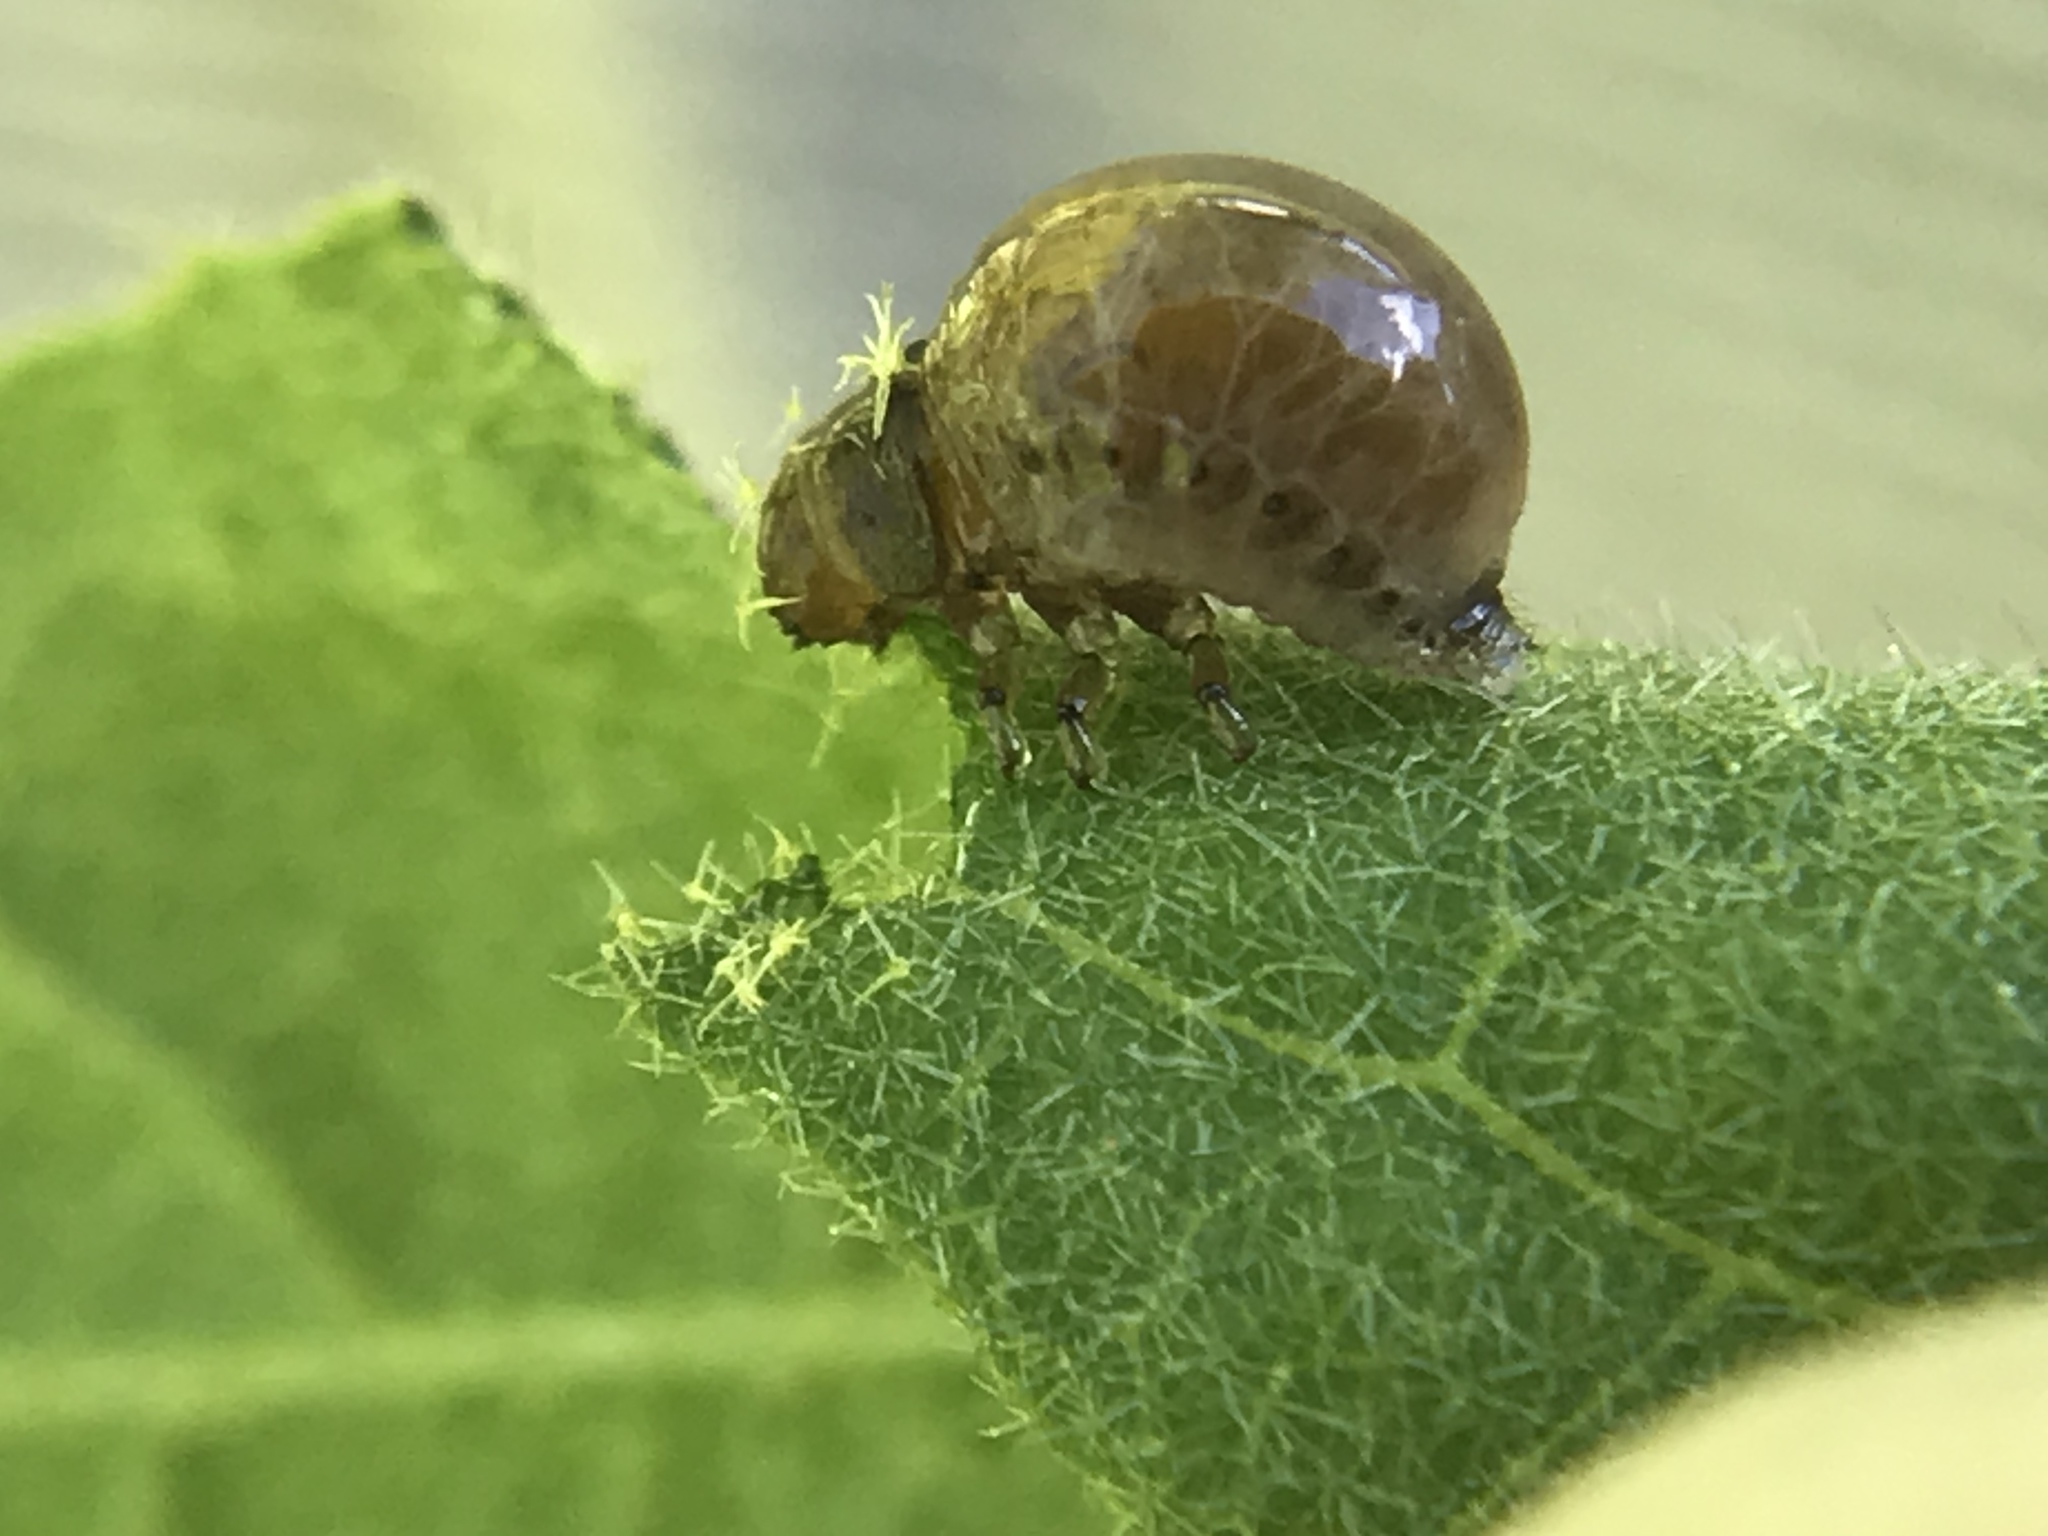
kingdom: Animalia
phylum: Arthropoda
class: Insecta
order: Coleoptera
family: Chrysomelidae
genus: Leptinotarsa
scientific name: Leptinotarsa juncta
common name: False potato beetle
